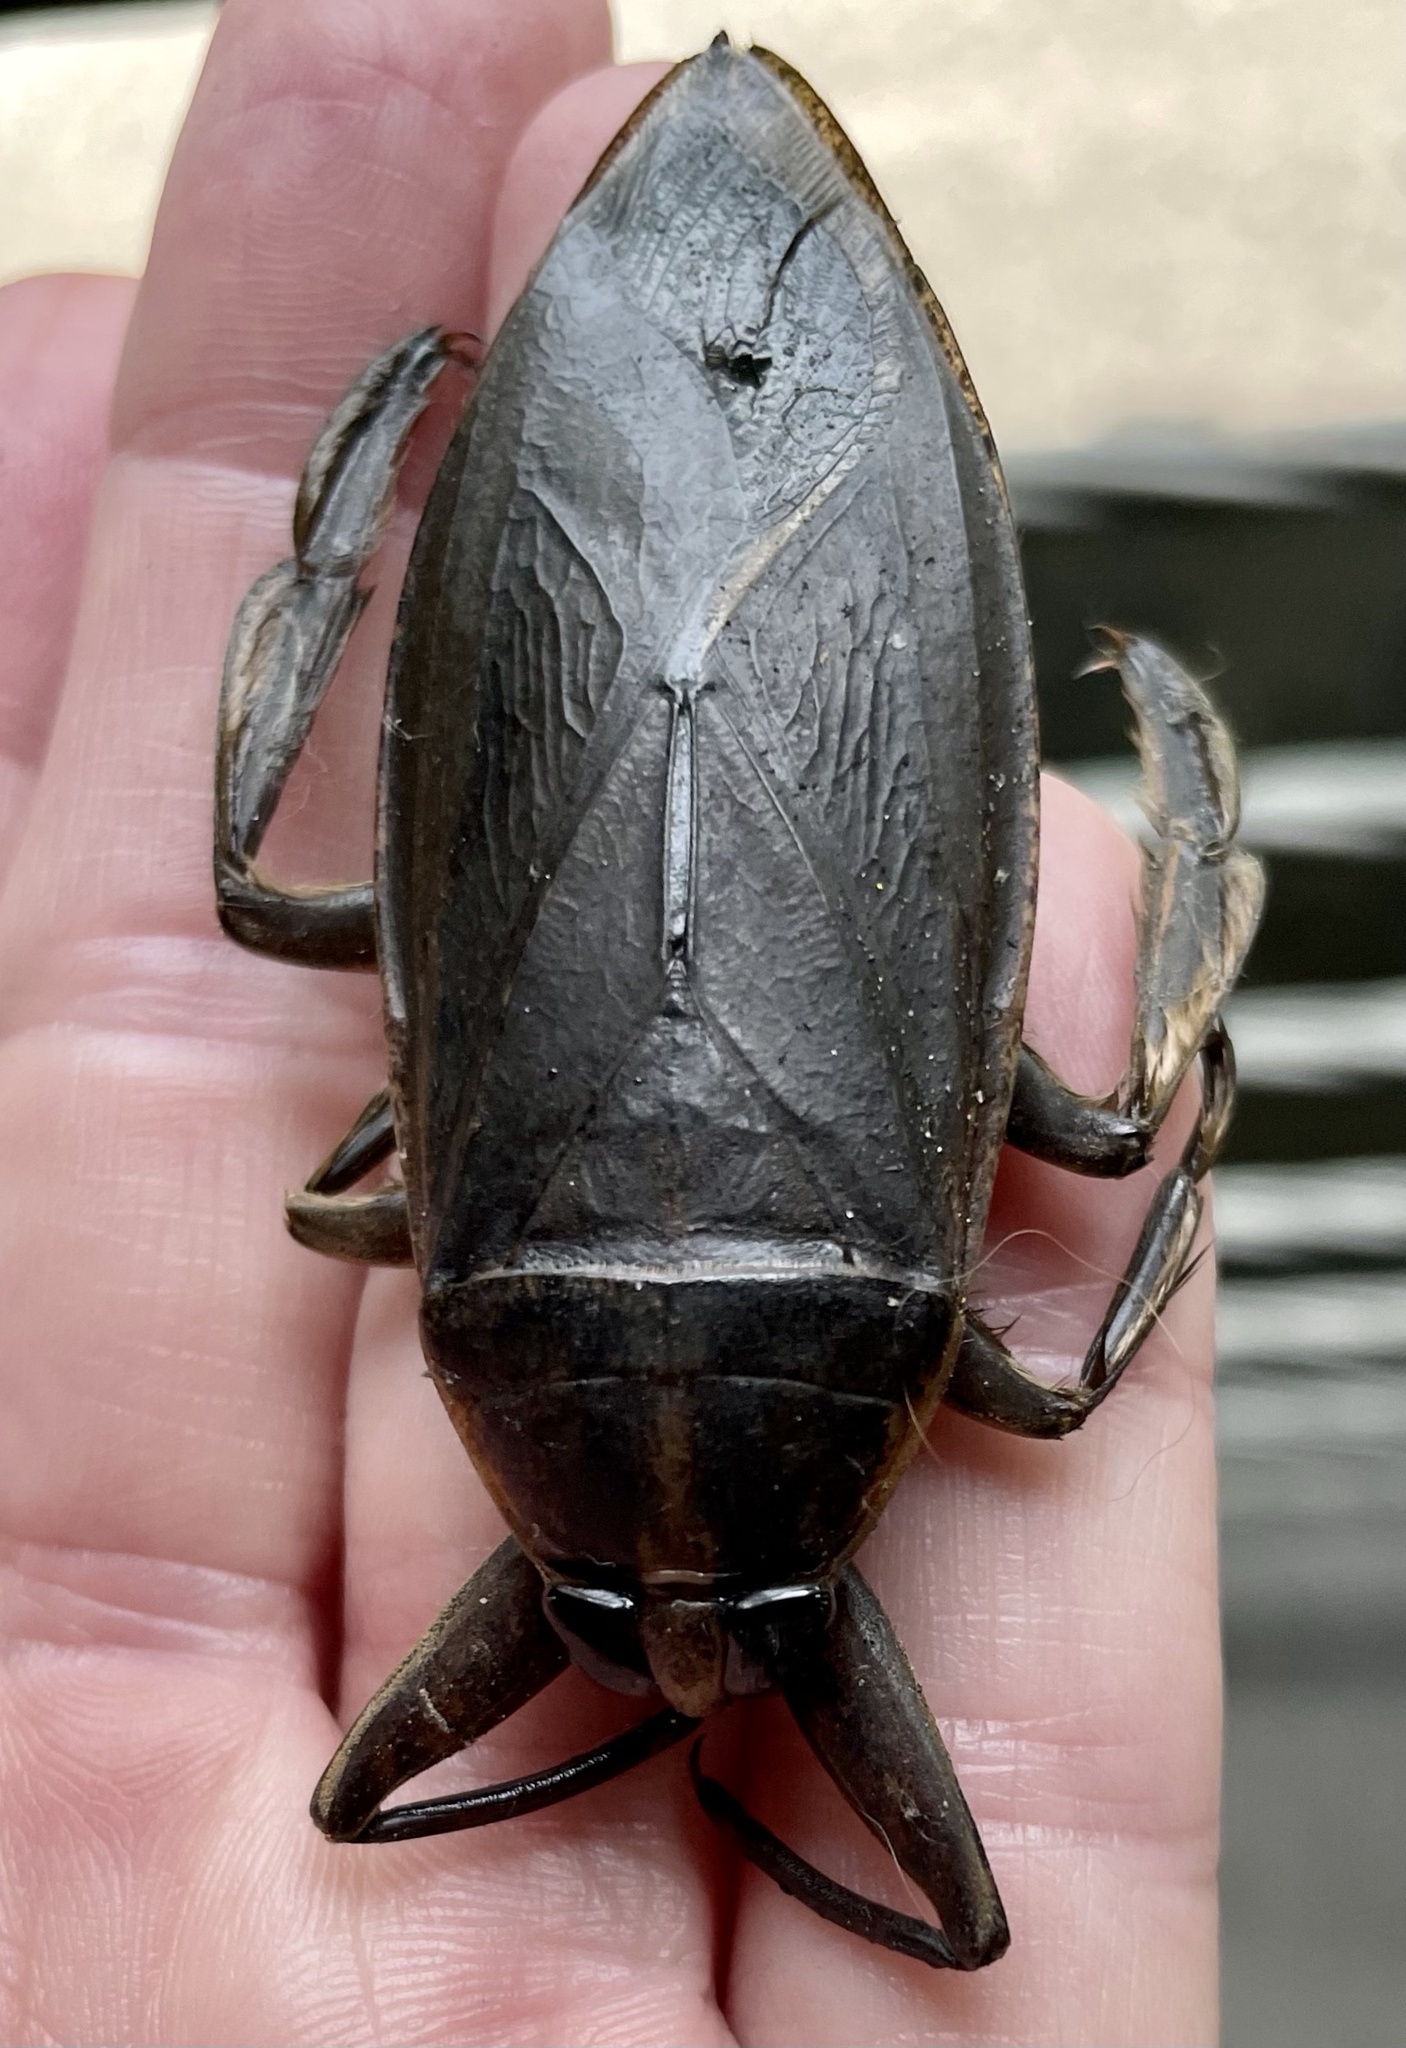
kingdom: Animalia
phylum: Arthropoda
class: Insecta
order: Hemiptera
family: Belostomatidae
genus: Benacus
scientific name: Benacus griseus
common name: Eastern toe-biter
